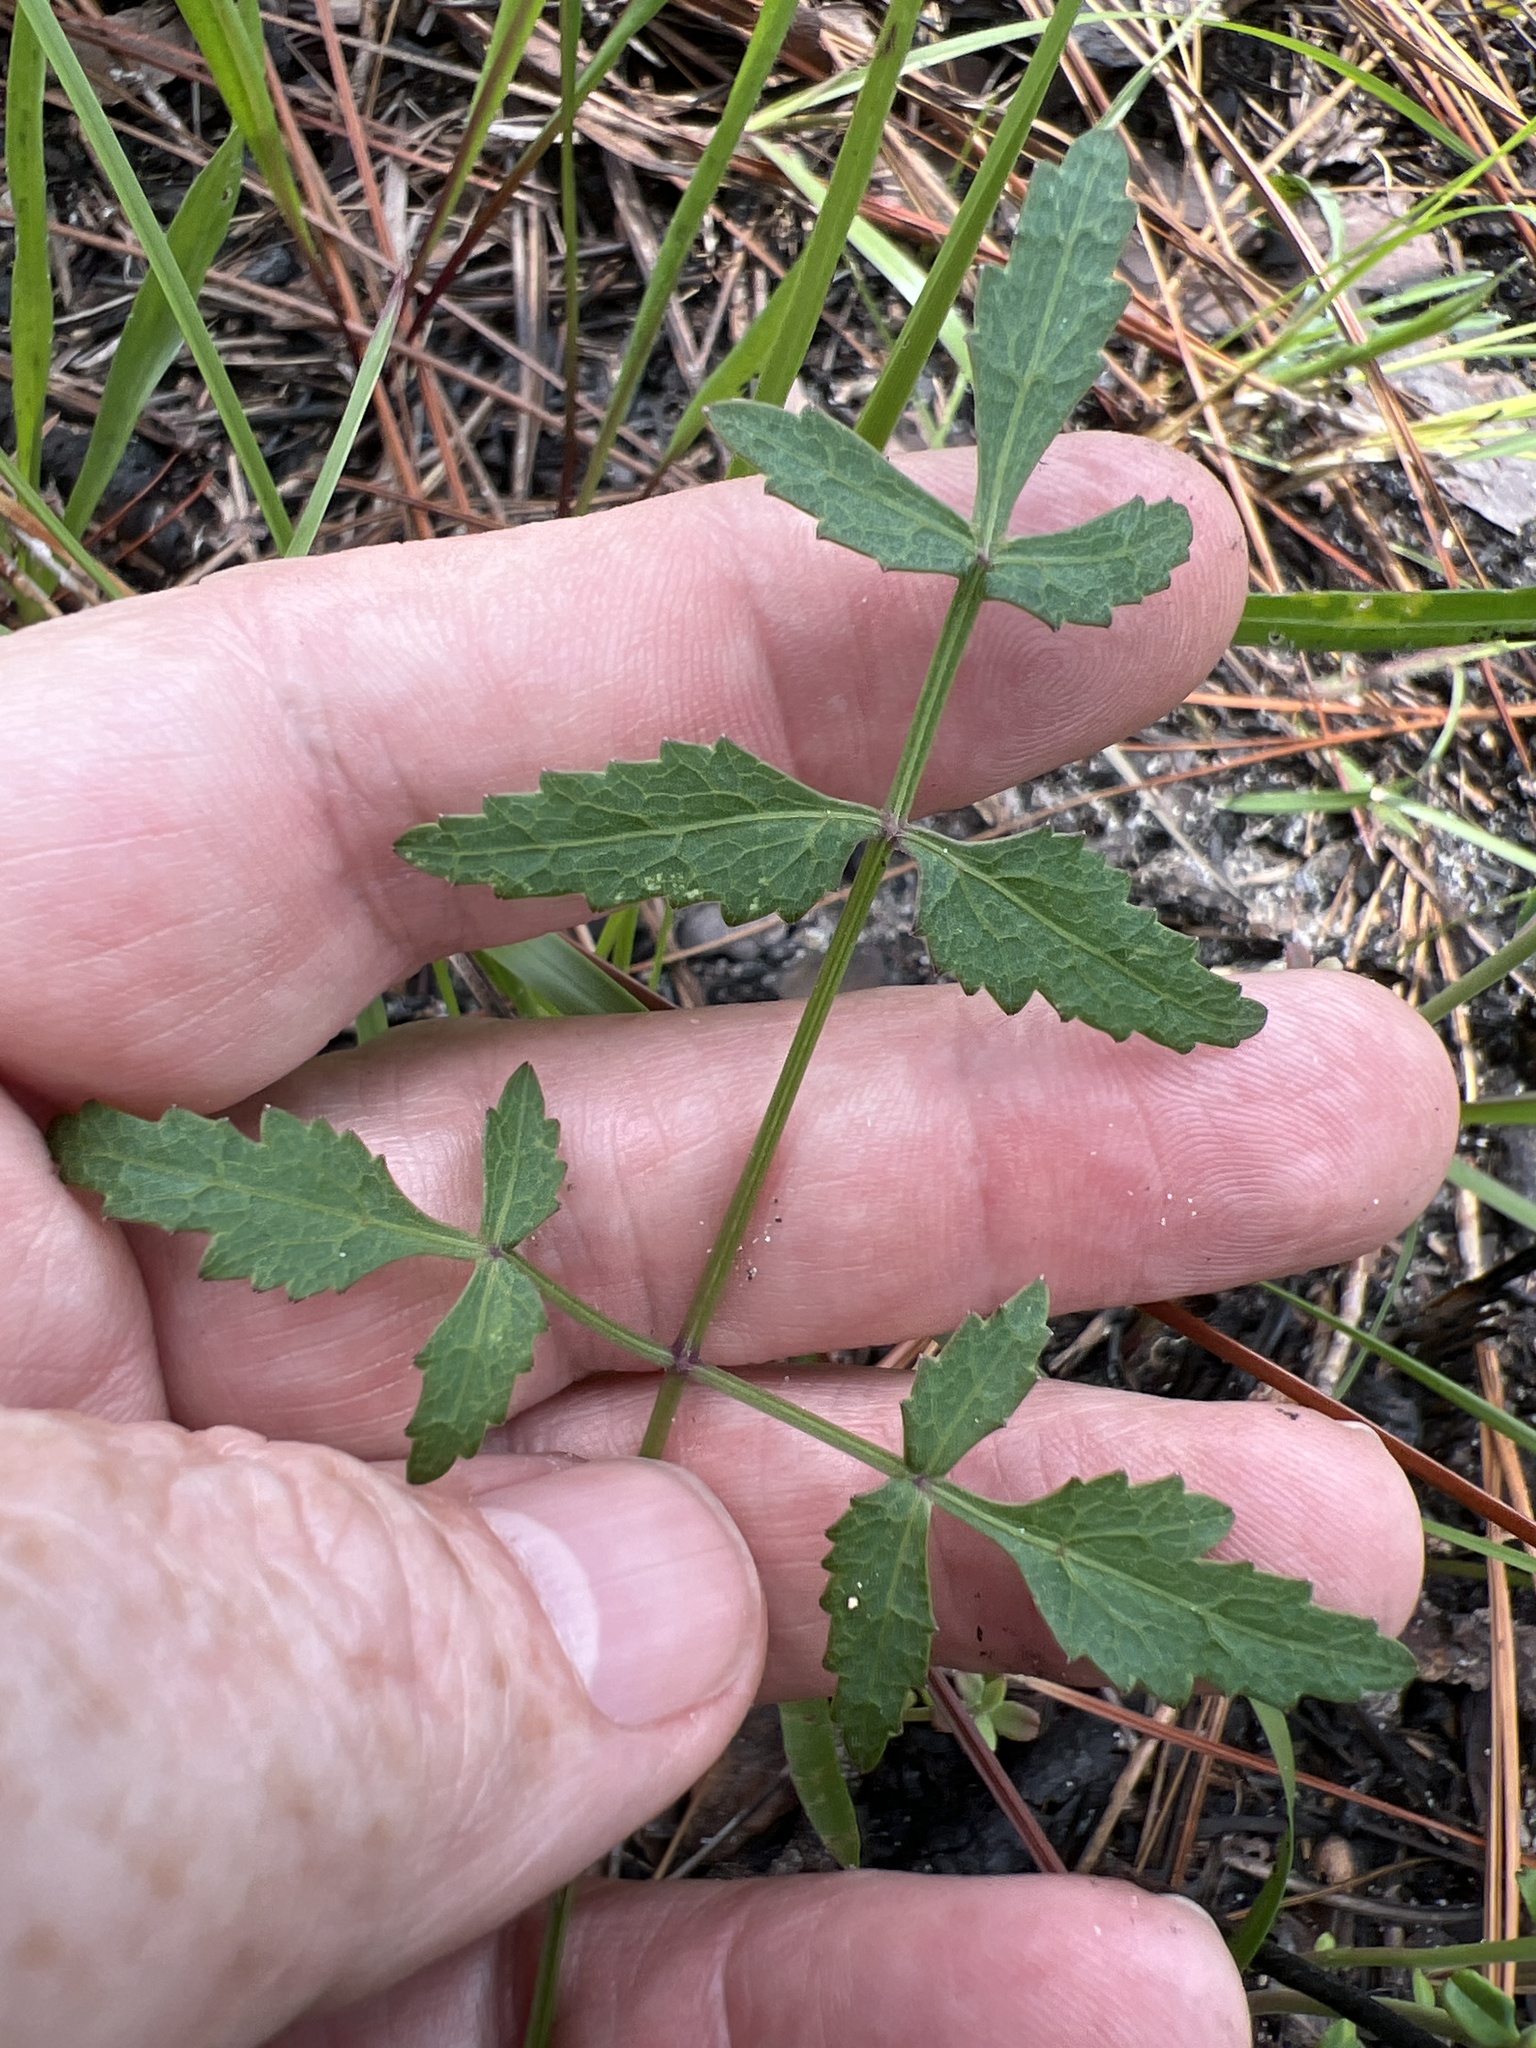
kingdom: Plantae
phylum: Tracheophyta
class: Magnoliopsida
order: Apiales
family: Apiaceae
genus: Angelica
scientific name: Angelica venenosa
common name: Hairy angelica
